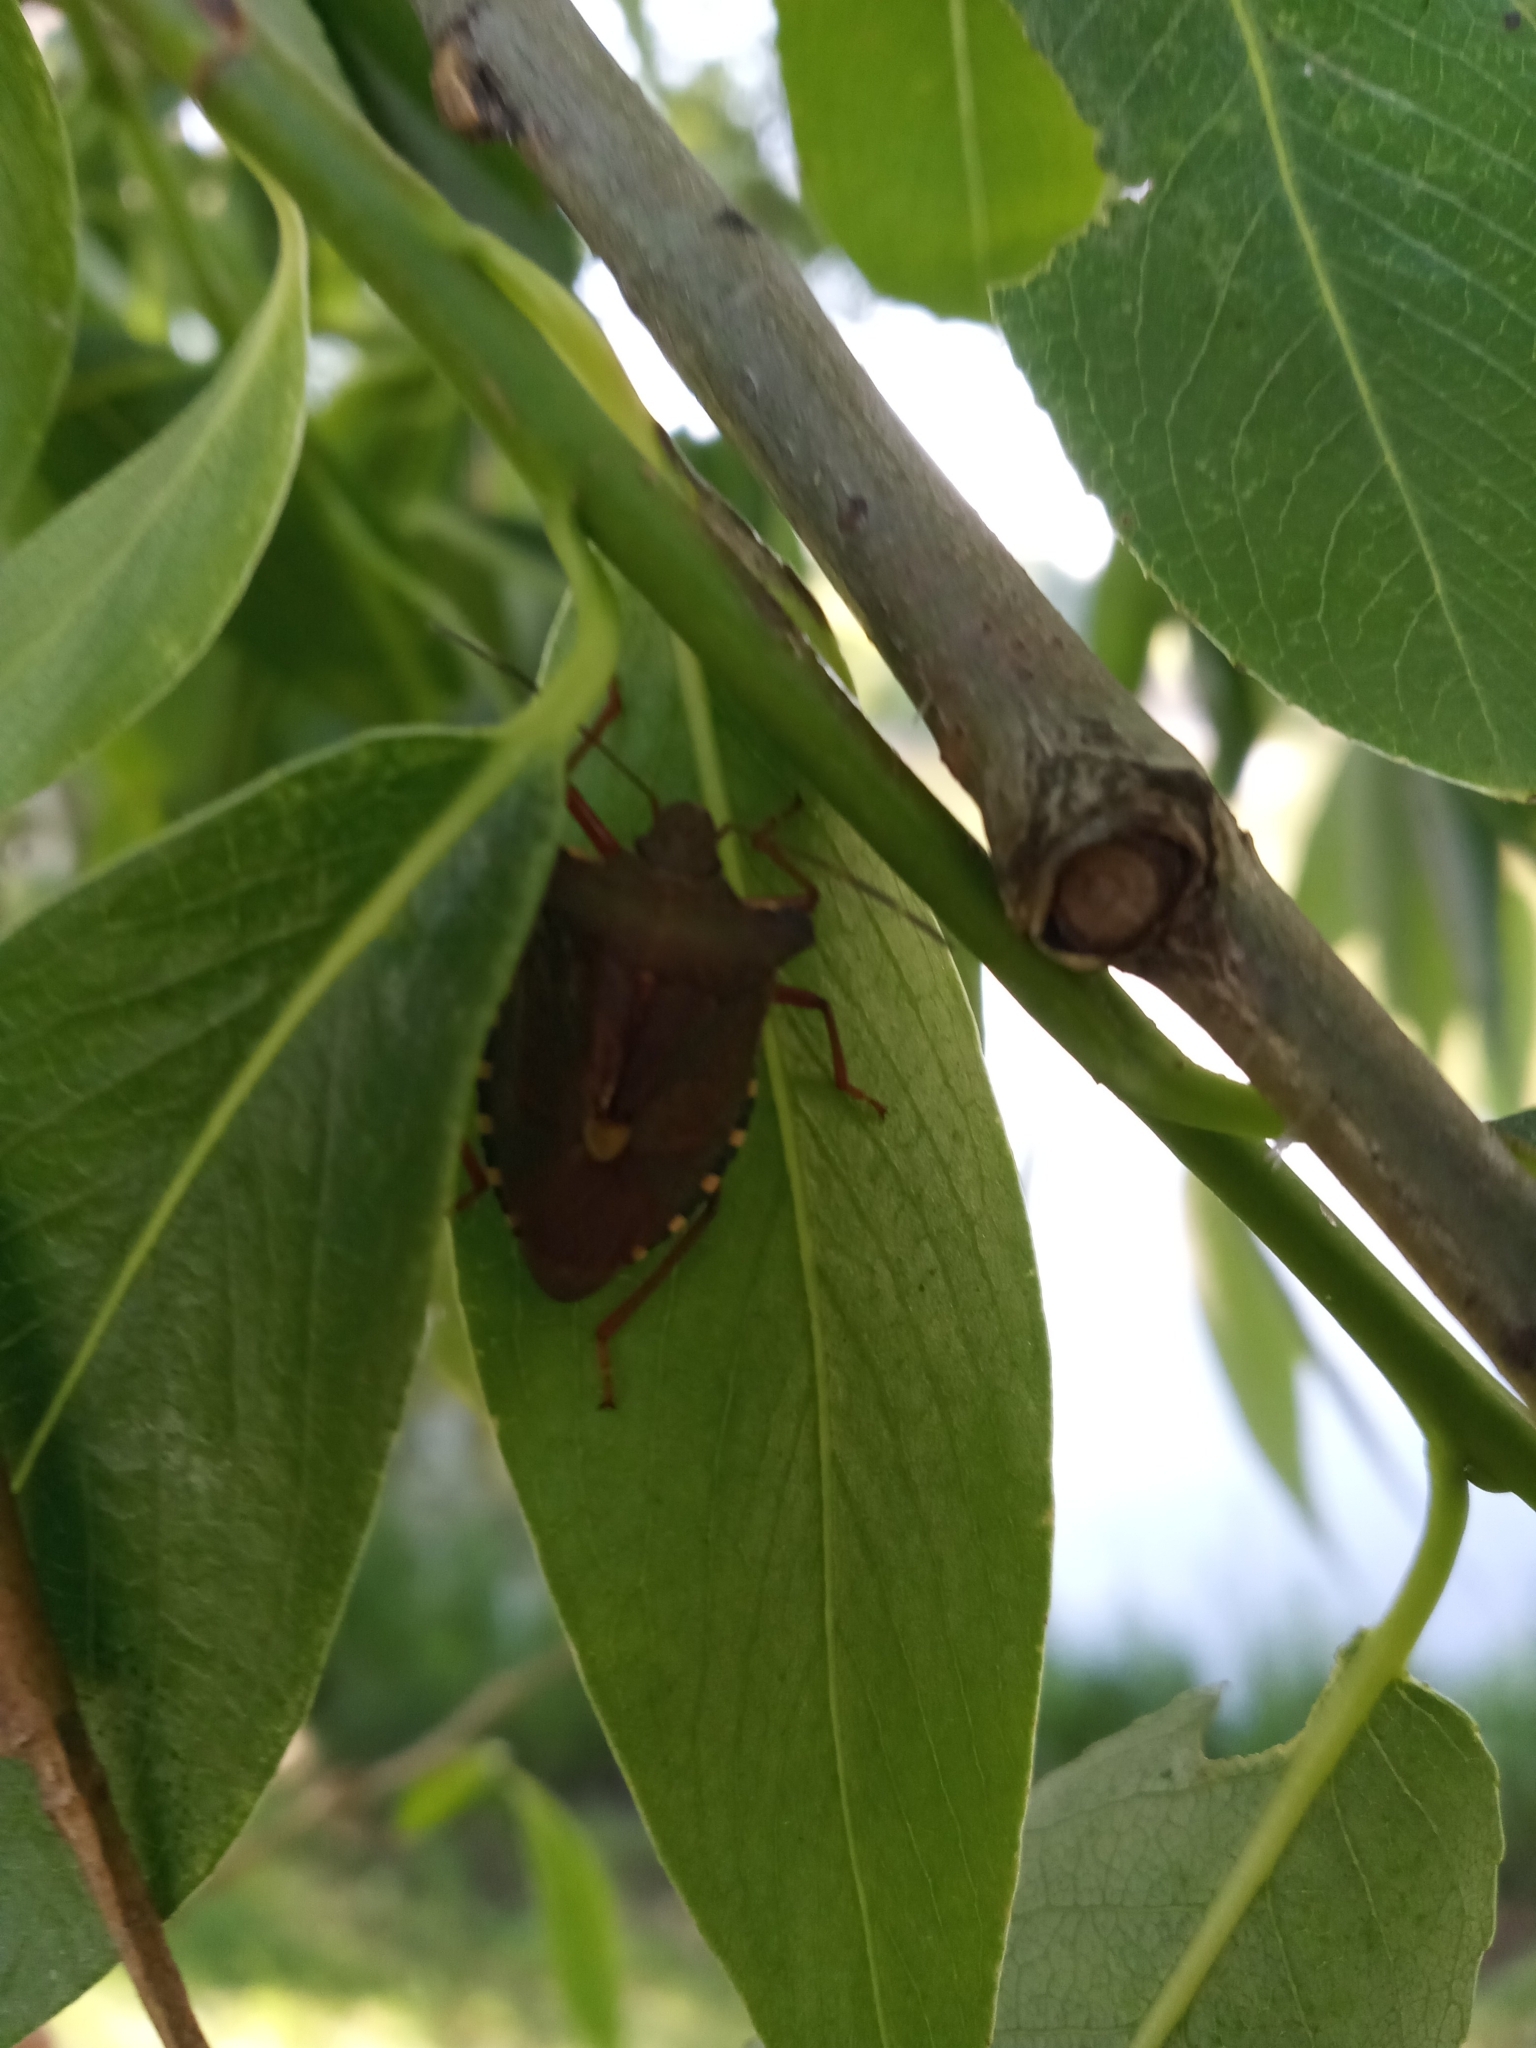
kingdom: Animalia
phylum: Arthropoda
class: Insecta
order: Hemiptera
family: Pentatomidae
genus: Pentatoma
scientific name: Pentatoma rufipes
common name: Forest bug
